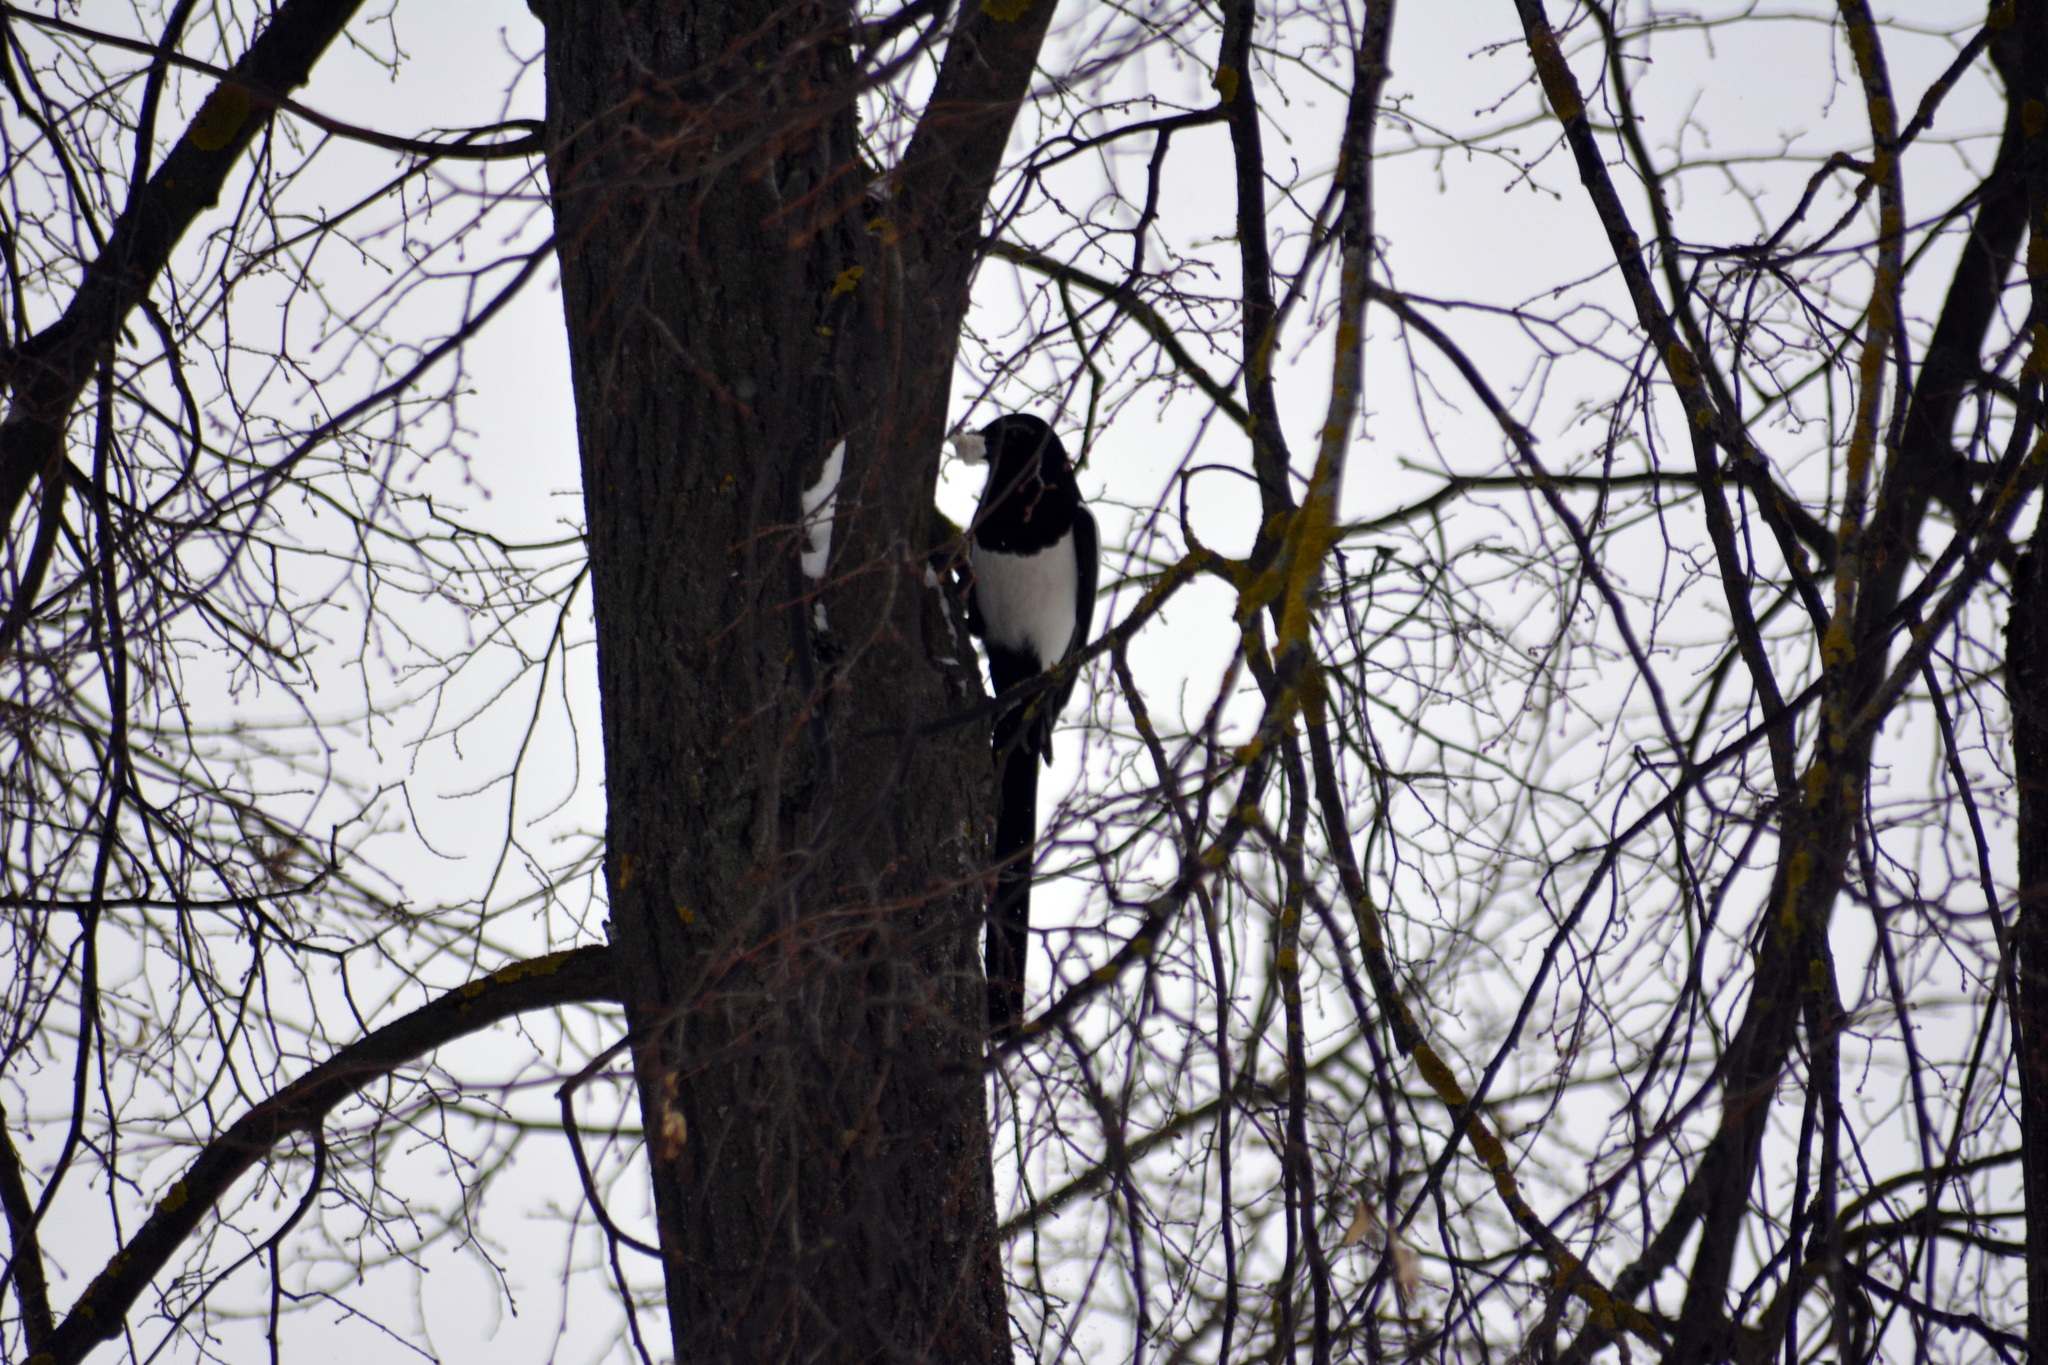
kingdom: Animalia
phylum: Chordata
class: Aves
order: Passeriformes
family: Corvidae
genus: Pica
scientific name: Pica pica
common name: Eurasian magpie
